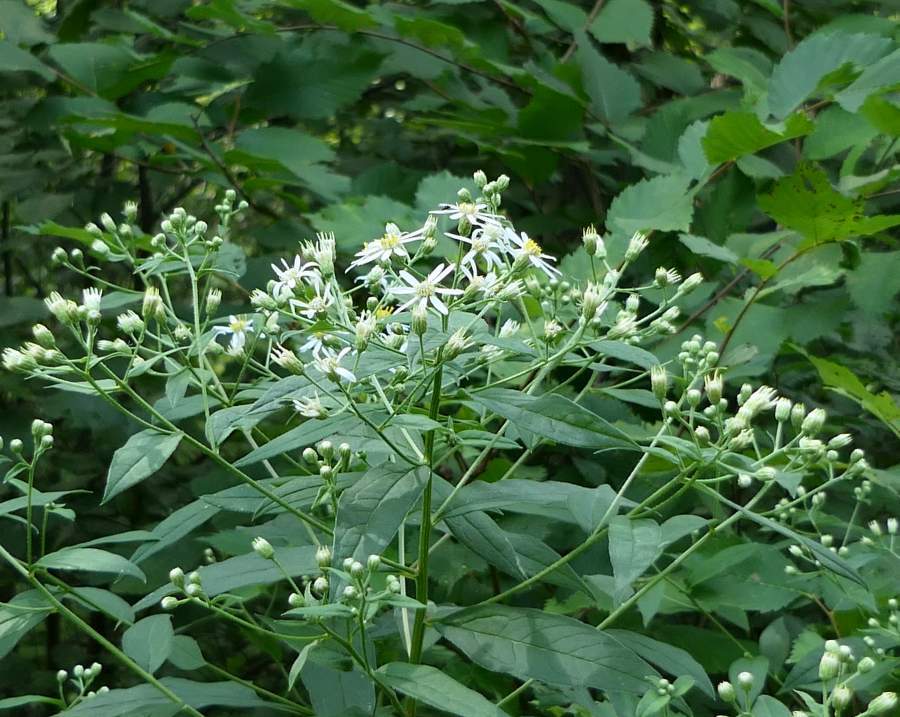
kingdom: Plantae
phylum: Tracheophyta
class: Magnoliopsida
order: Asterales
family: Asteraceae
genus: Doellingeria
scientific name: Doellingeria umbellata
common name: Flat-top white aster
